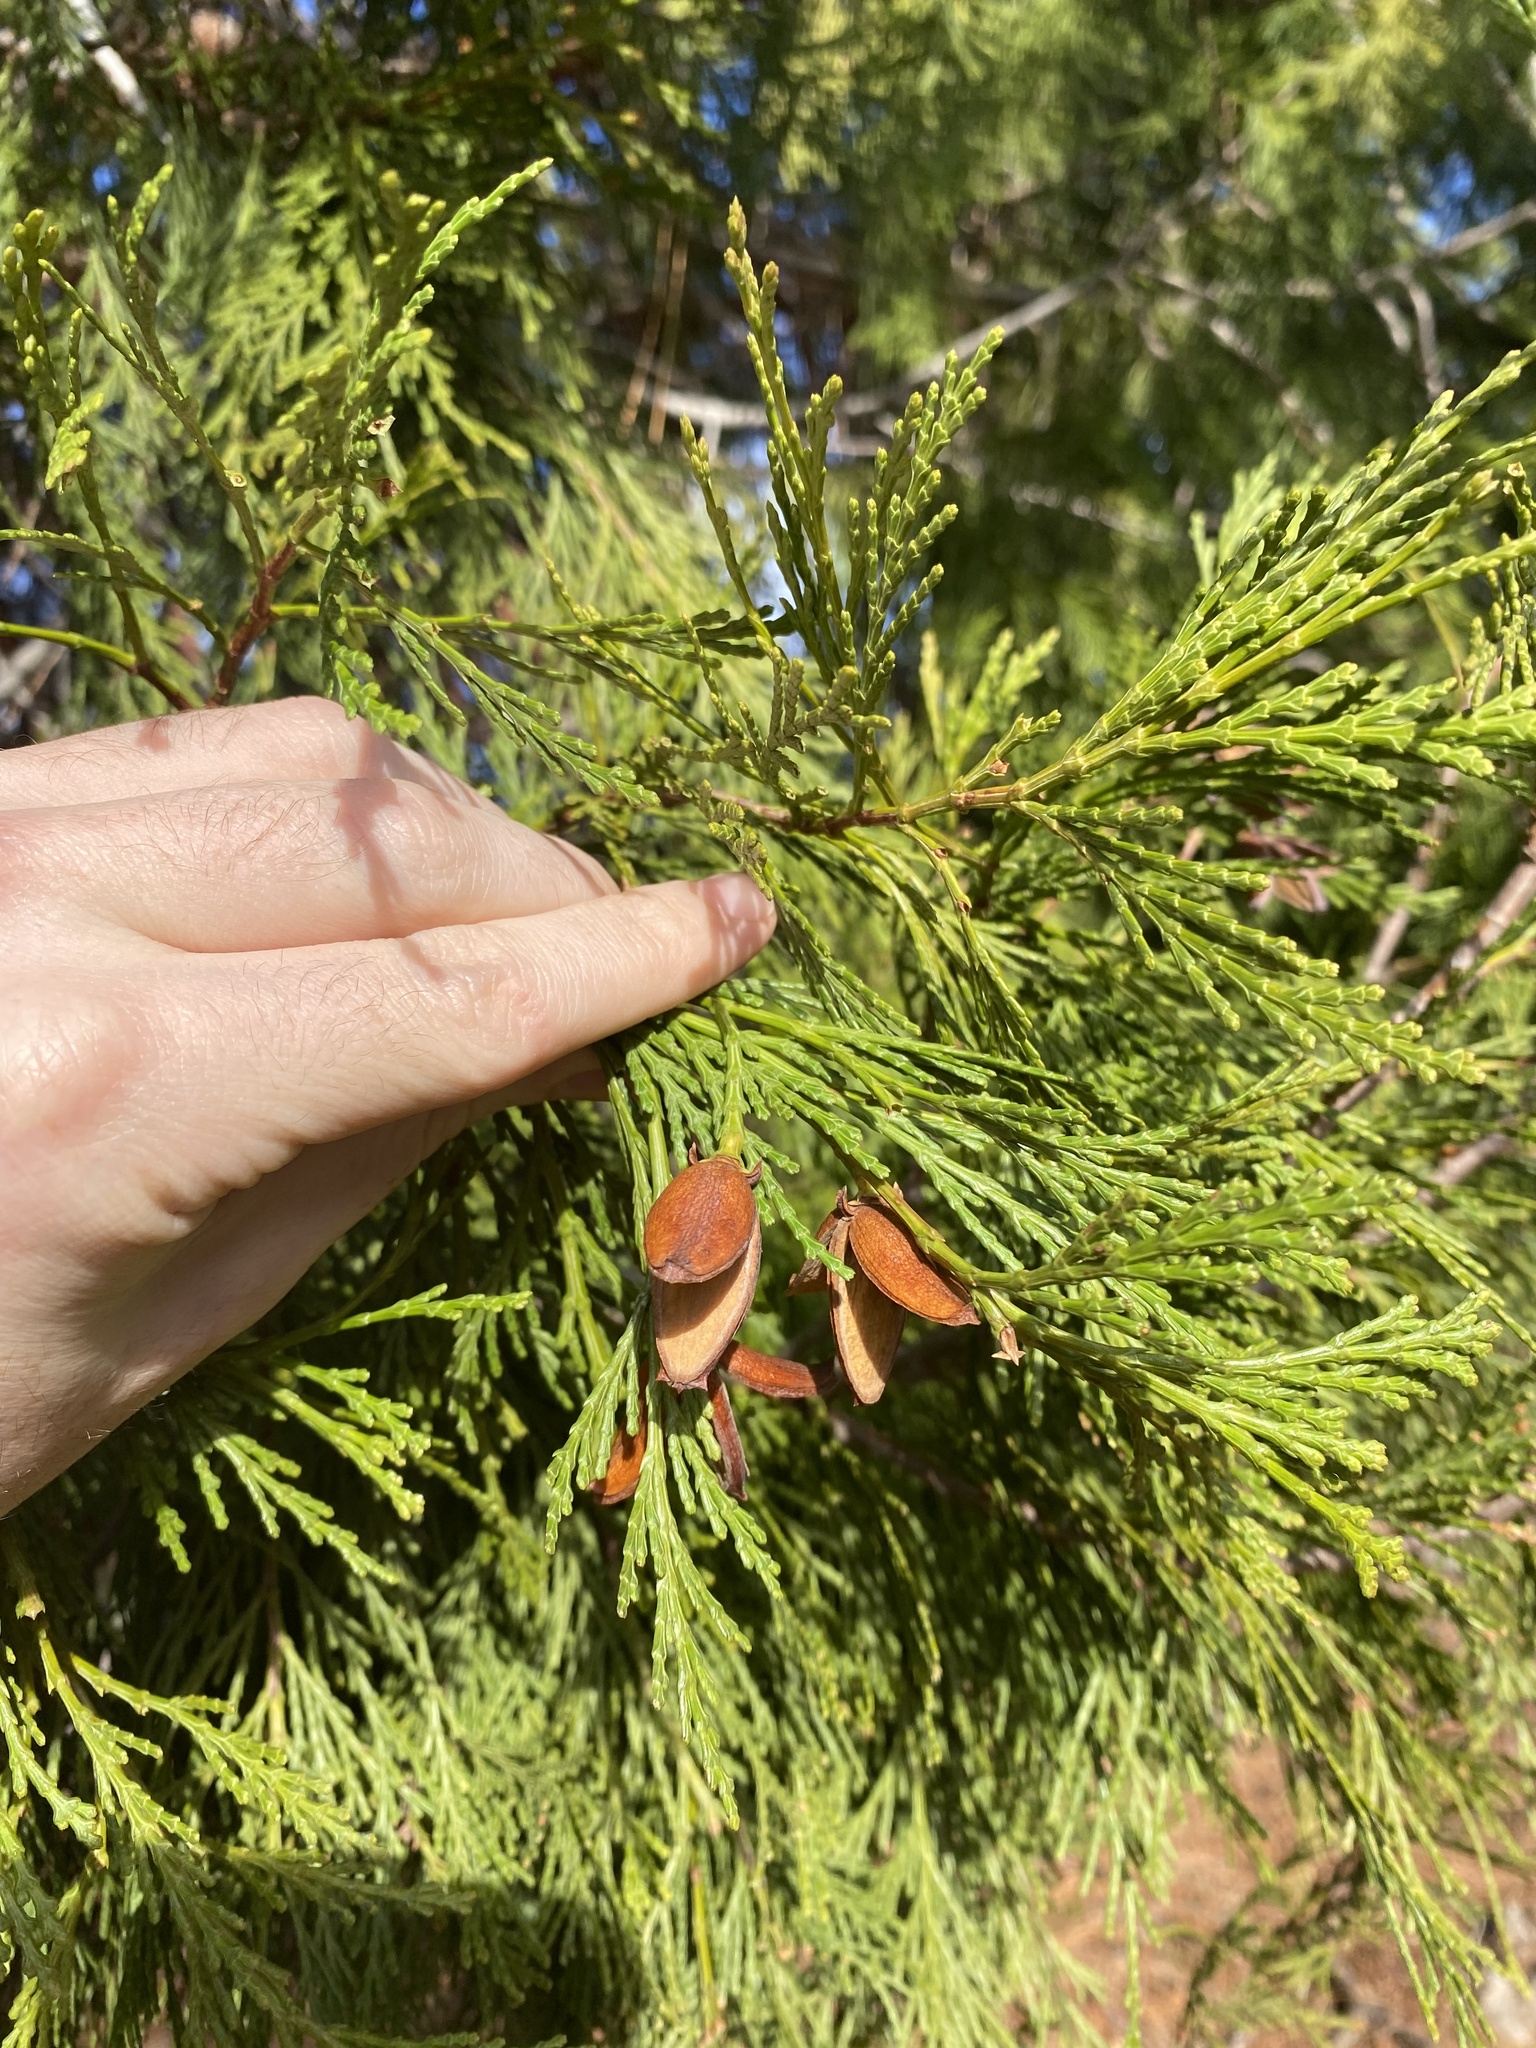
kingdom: Plantae
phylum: Tracheophyta
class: Pinopsida
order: Pinales
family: Cupressaceae
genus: Calocedrus
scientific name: Calocedrus decurrens
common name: Californian incense-cedar
